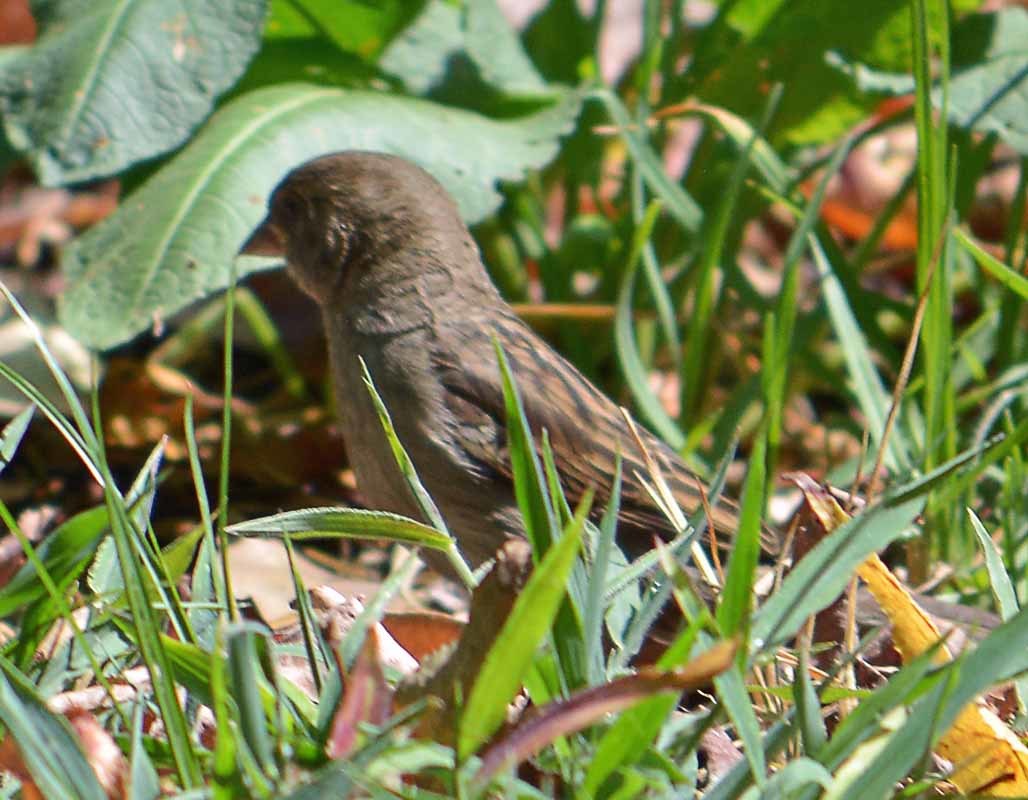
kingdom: Animalia
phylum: Chordata
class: Aves
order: Passeriformes
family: Passeridae
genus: Passer
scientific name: Passer domesticus
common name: House sparrow
